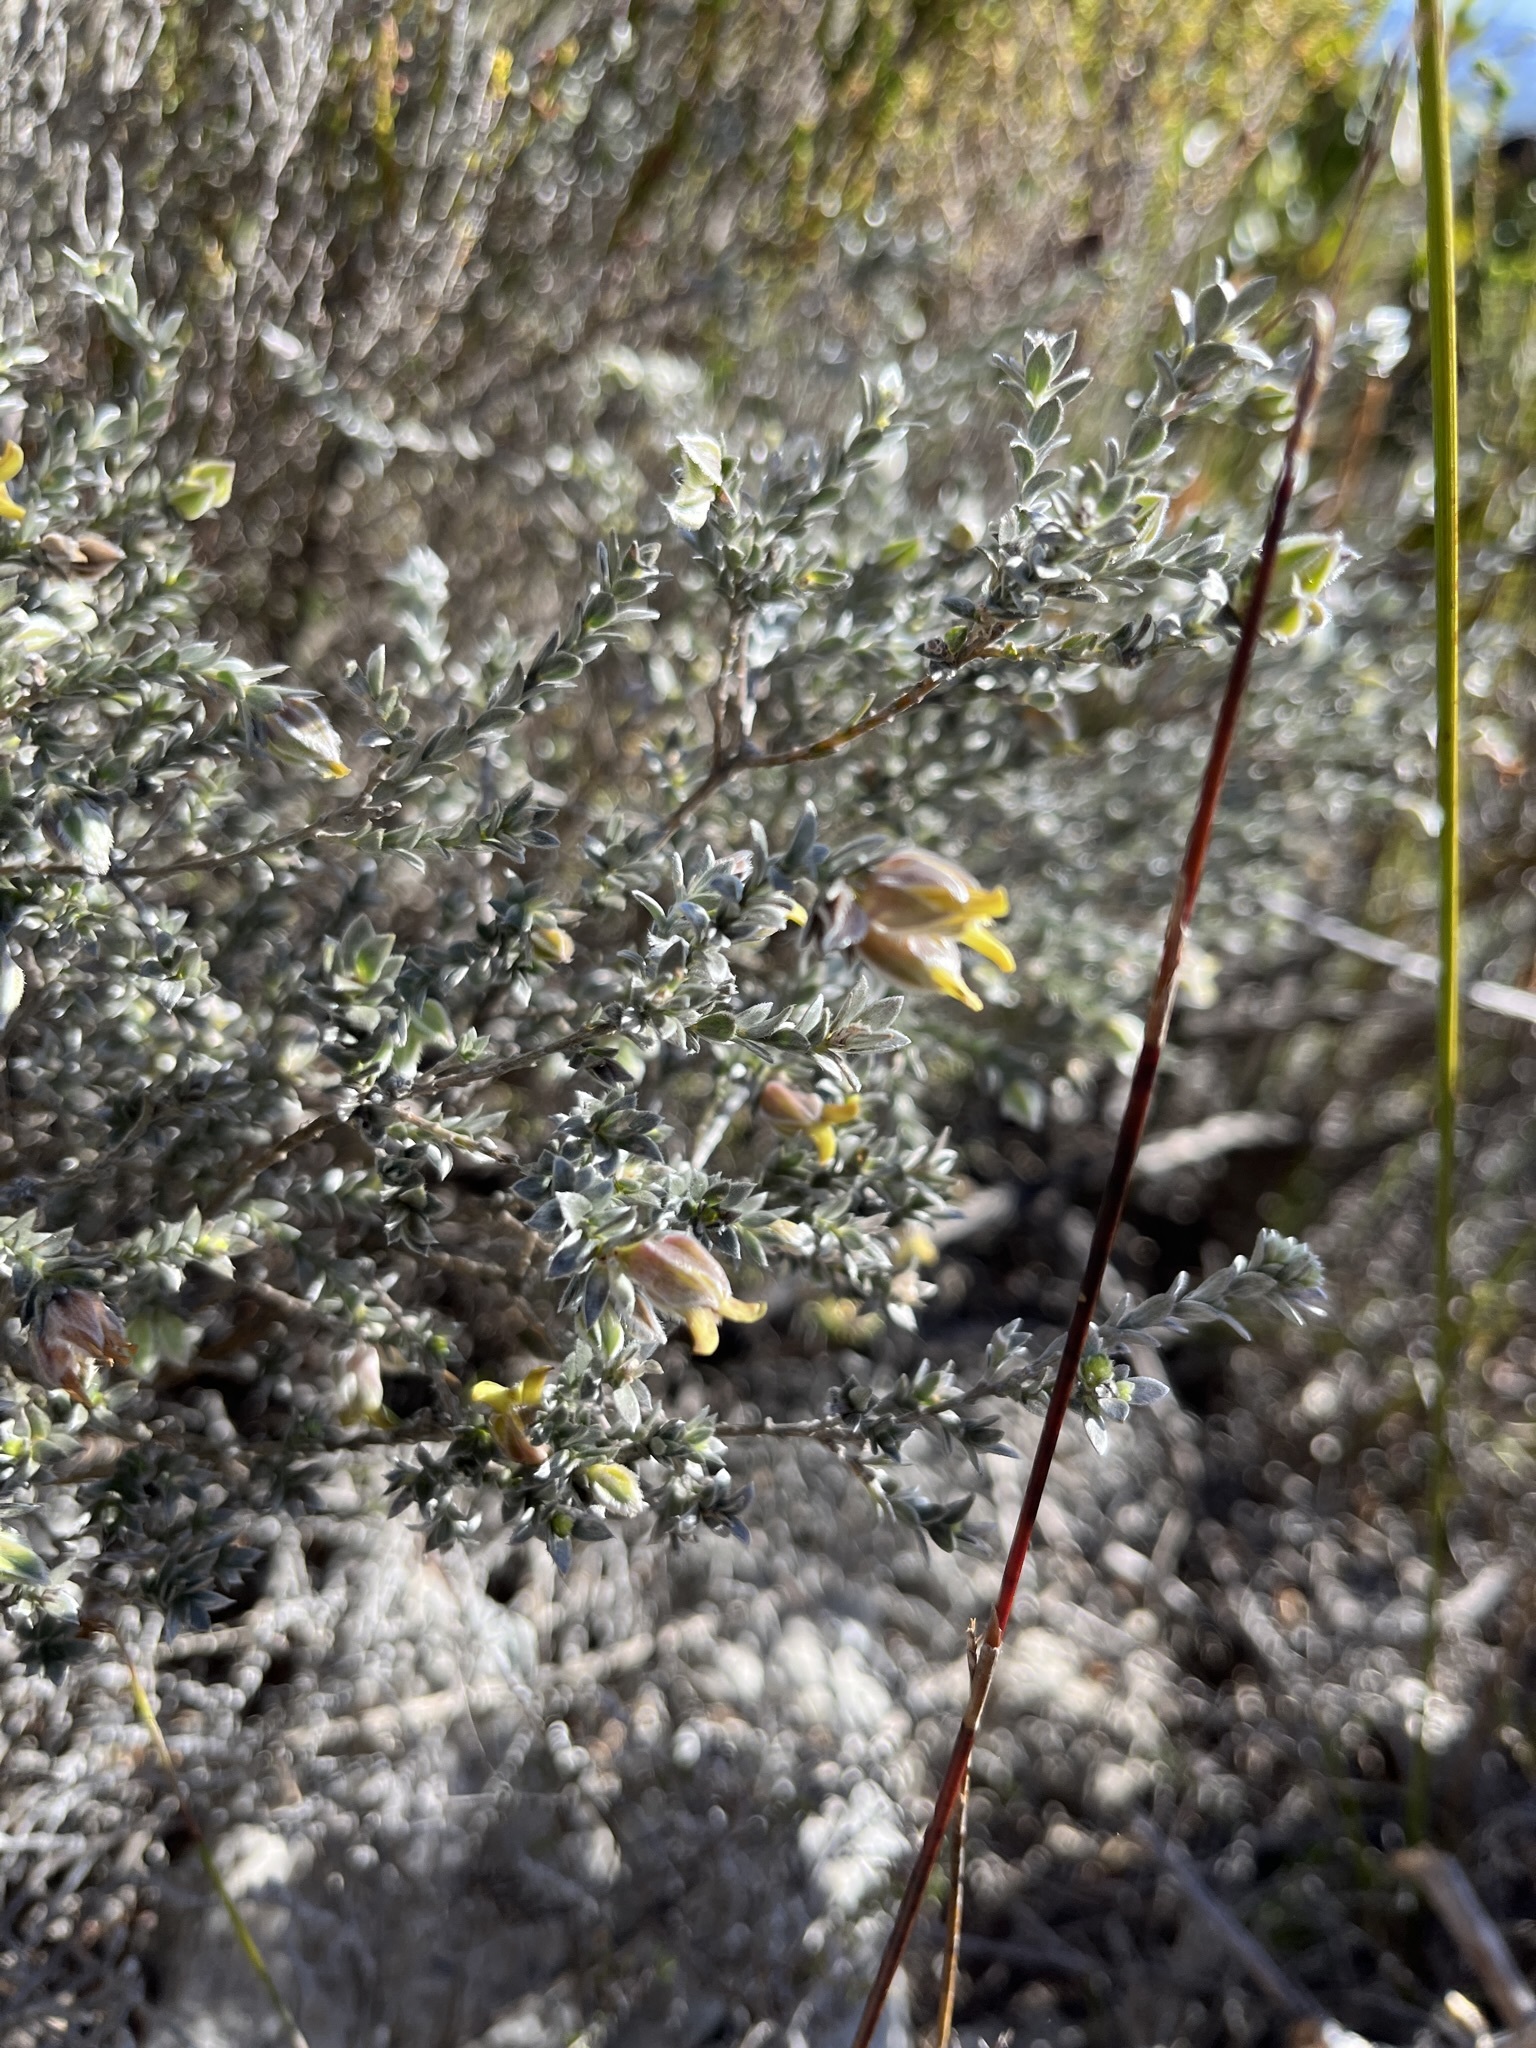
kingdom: Plantae
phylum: Tracheophyta
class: Magnoliopsida
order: Fabales
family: Fabaceae
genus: Amphithalea
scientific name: Amphithalea tomentosa
